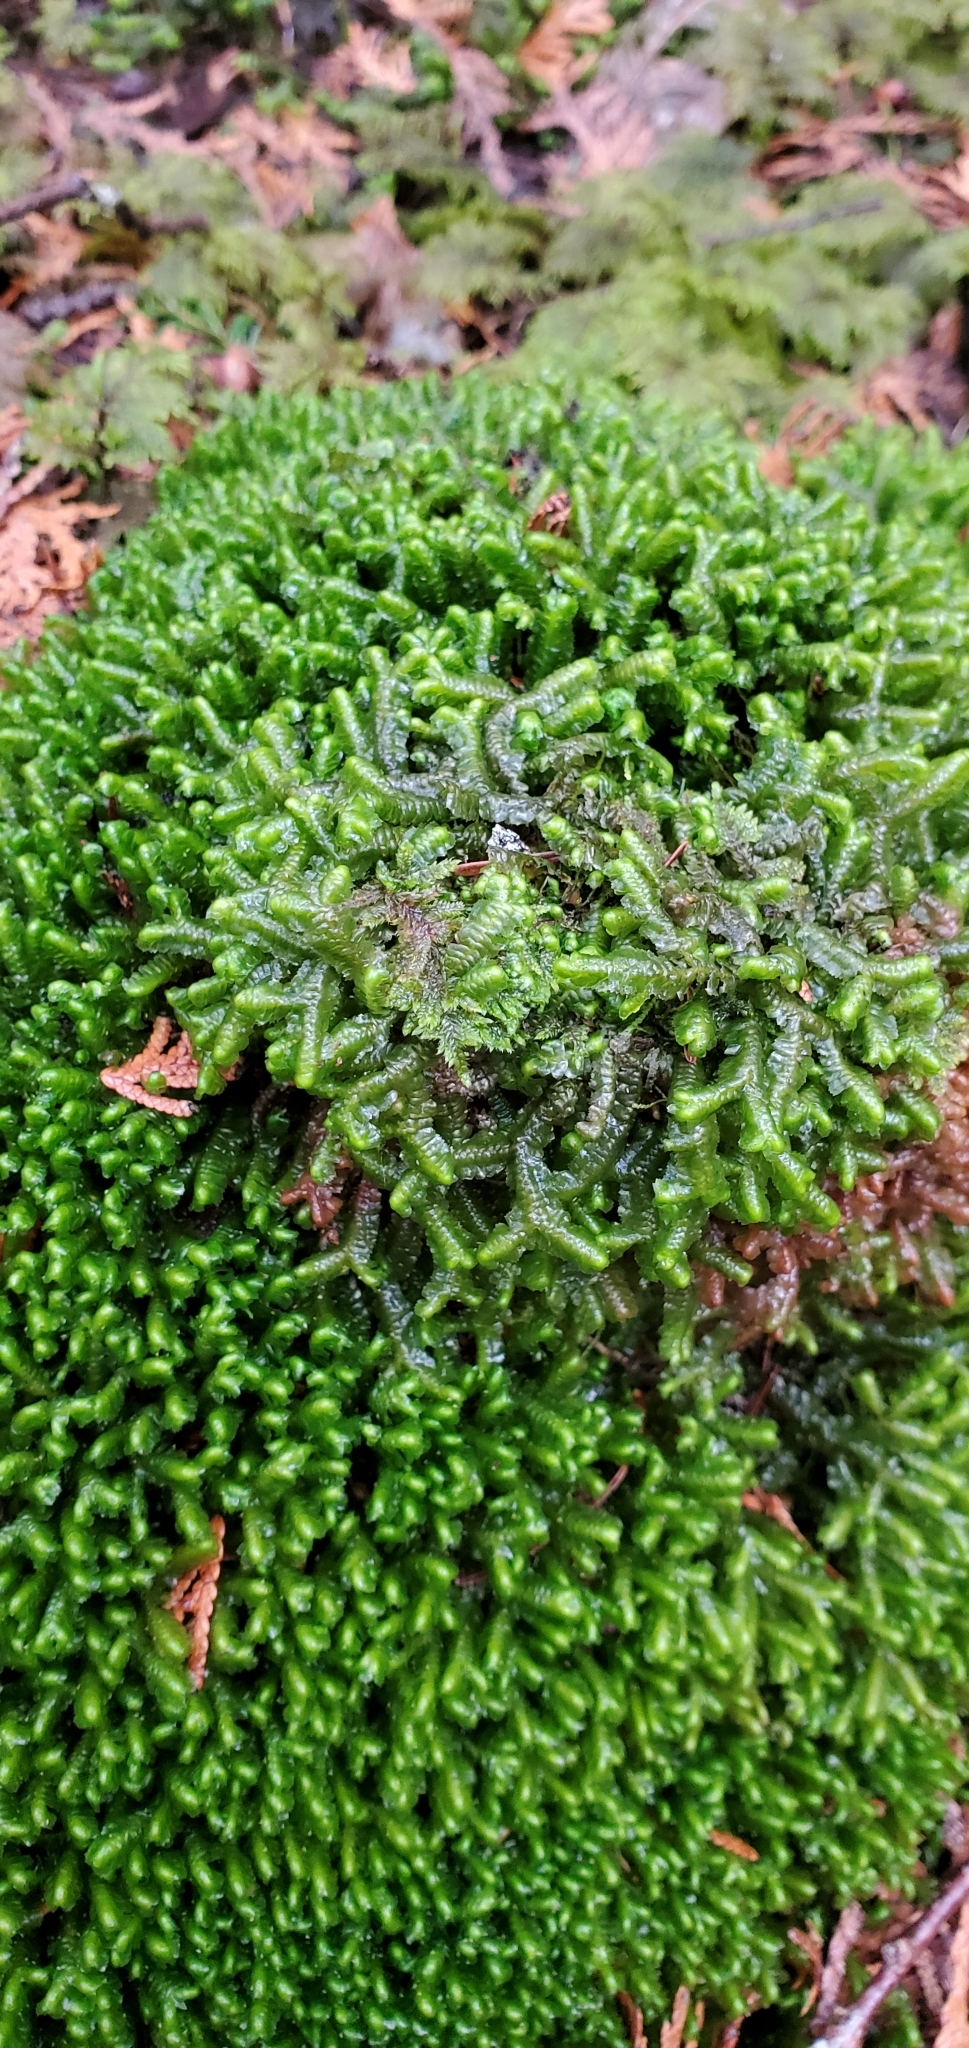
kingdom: Plantae
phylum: Marchantiophyta
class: Jungermanniopsida
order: Jungermanniales
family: Lepidoziaceae
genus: Bazzania
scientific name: Bazzania trilobata
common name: Three-lobed whipwort
